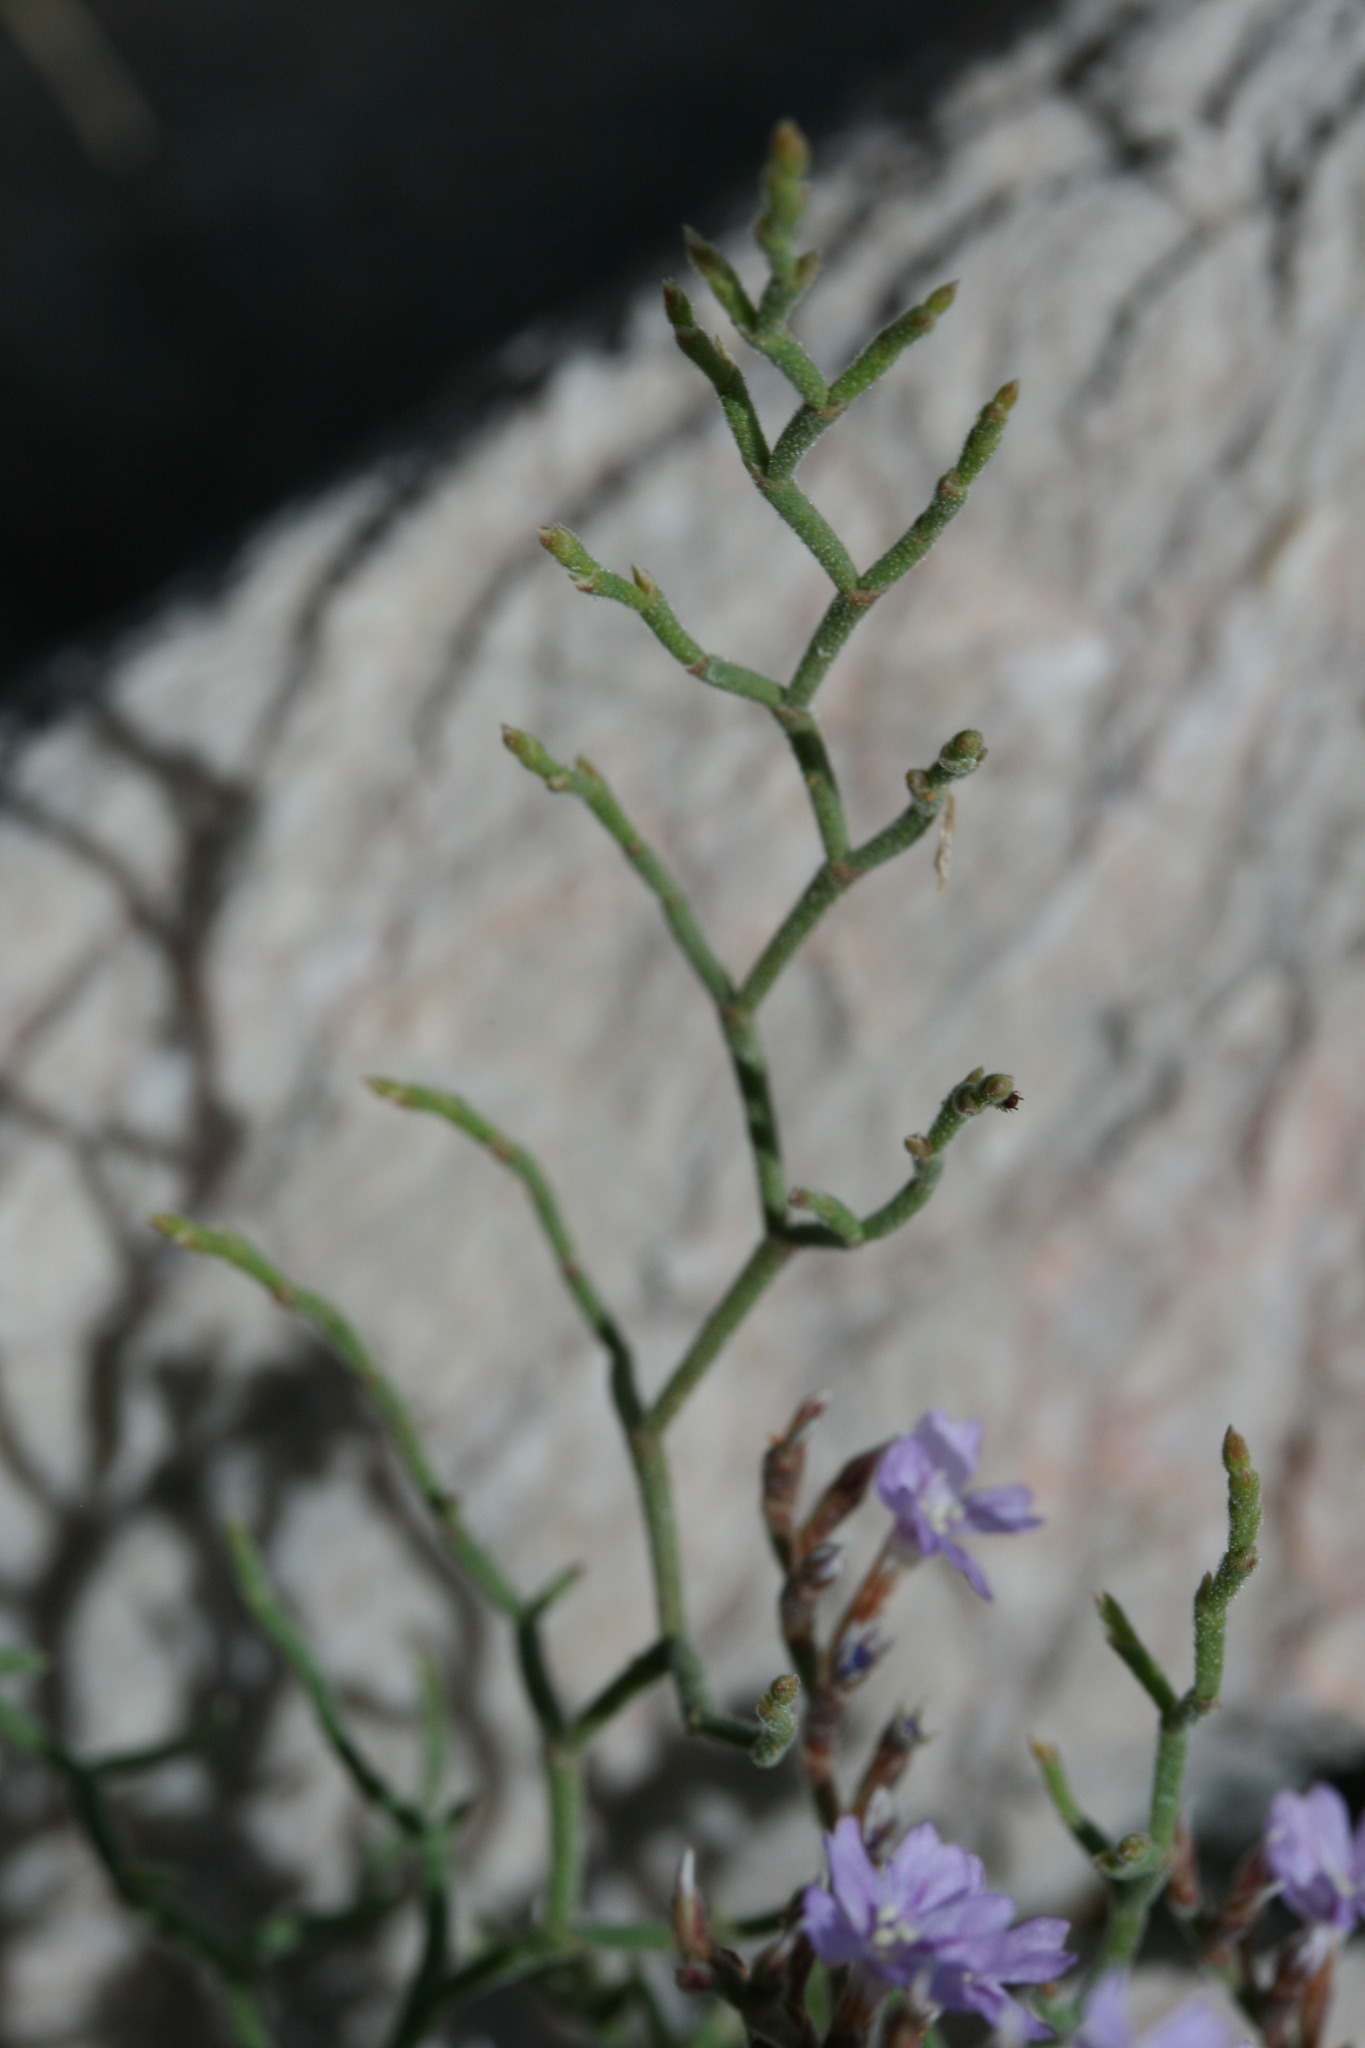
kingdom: Plantae
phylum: Tracheophyta
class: Magnoliopsida
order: Caryophyllales
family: Plumbaginaceae
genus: Limonium
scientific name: Limonium cancellatum
